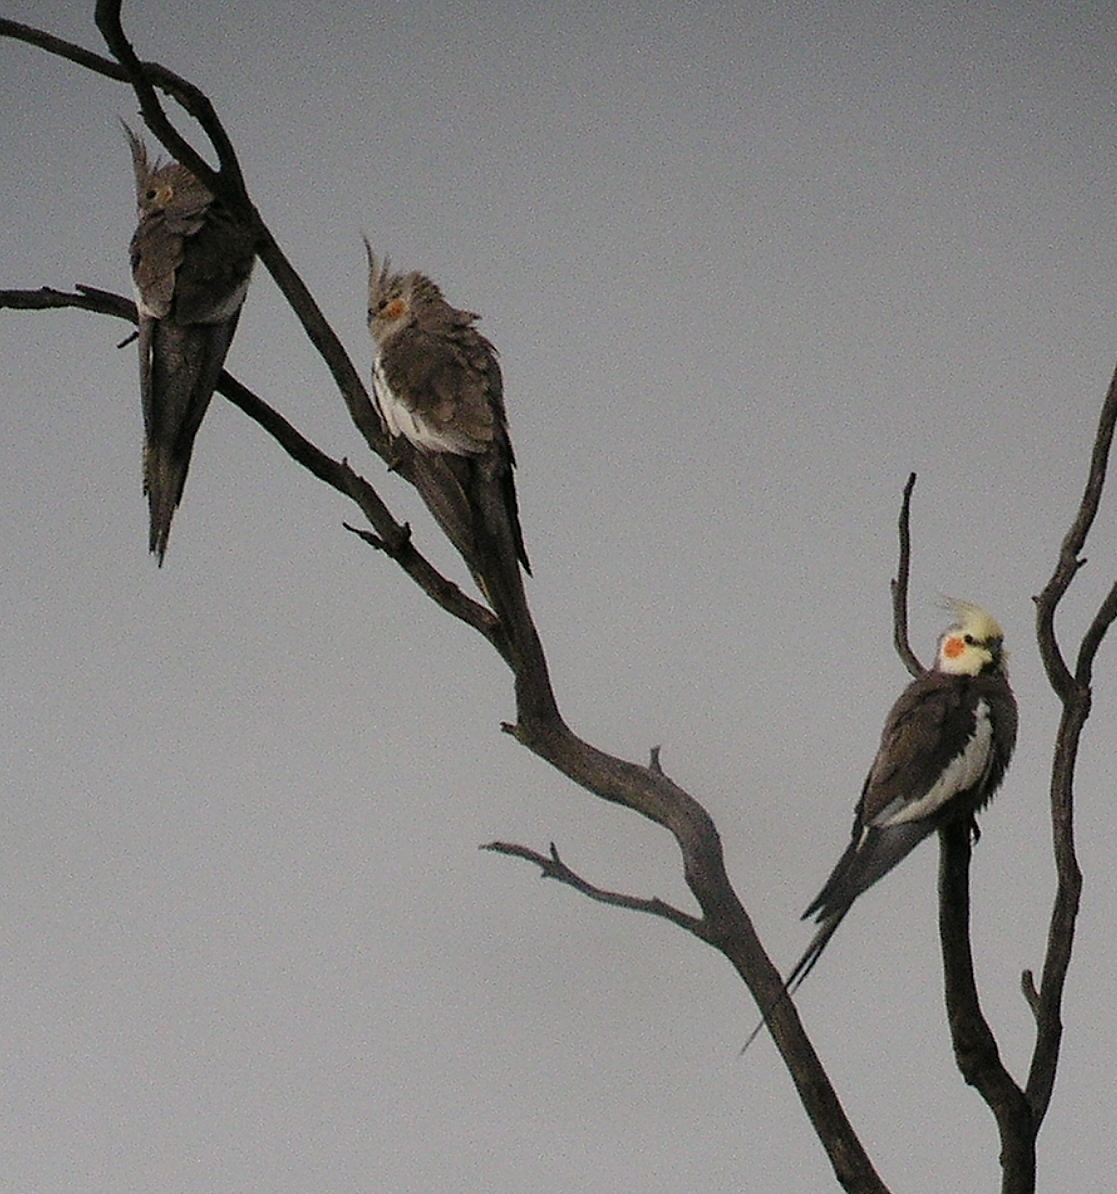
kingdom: Animalia
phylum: Chordata
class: Aves
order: Psittaciformes
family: Psittacidae
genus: Nymphicus
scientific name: Nymphicus hollandicus
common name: Cockatiel
